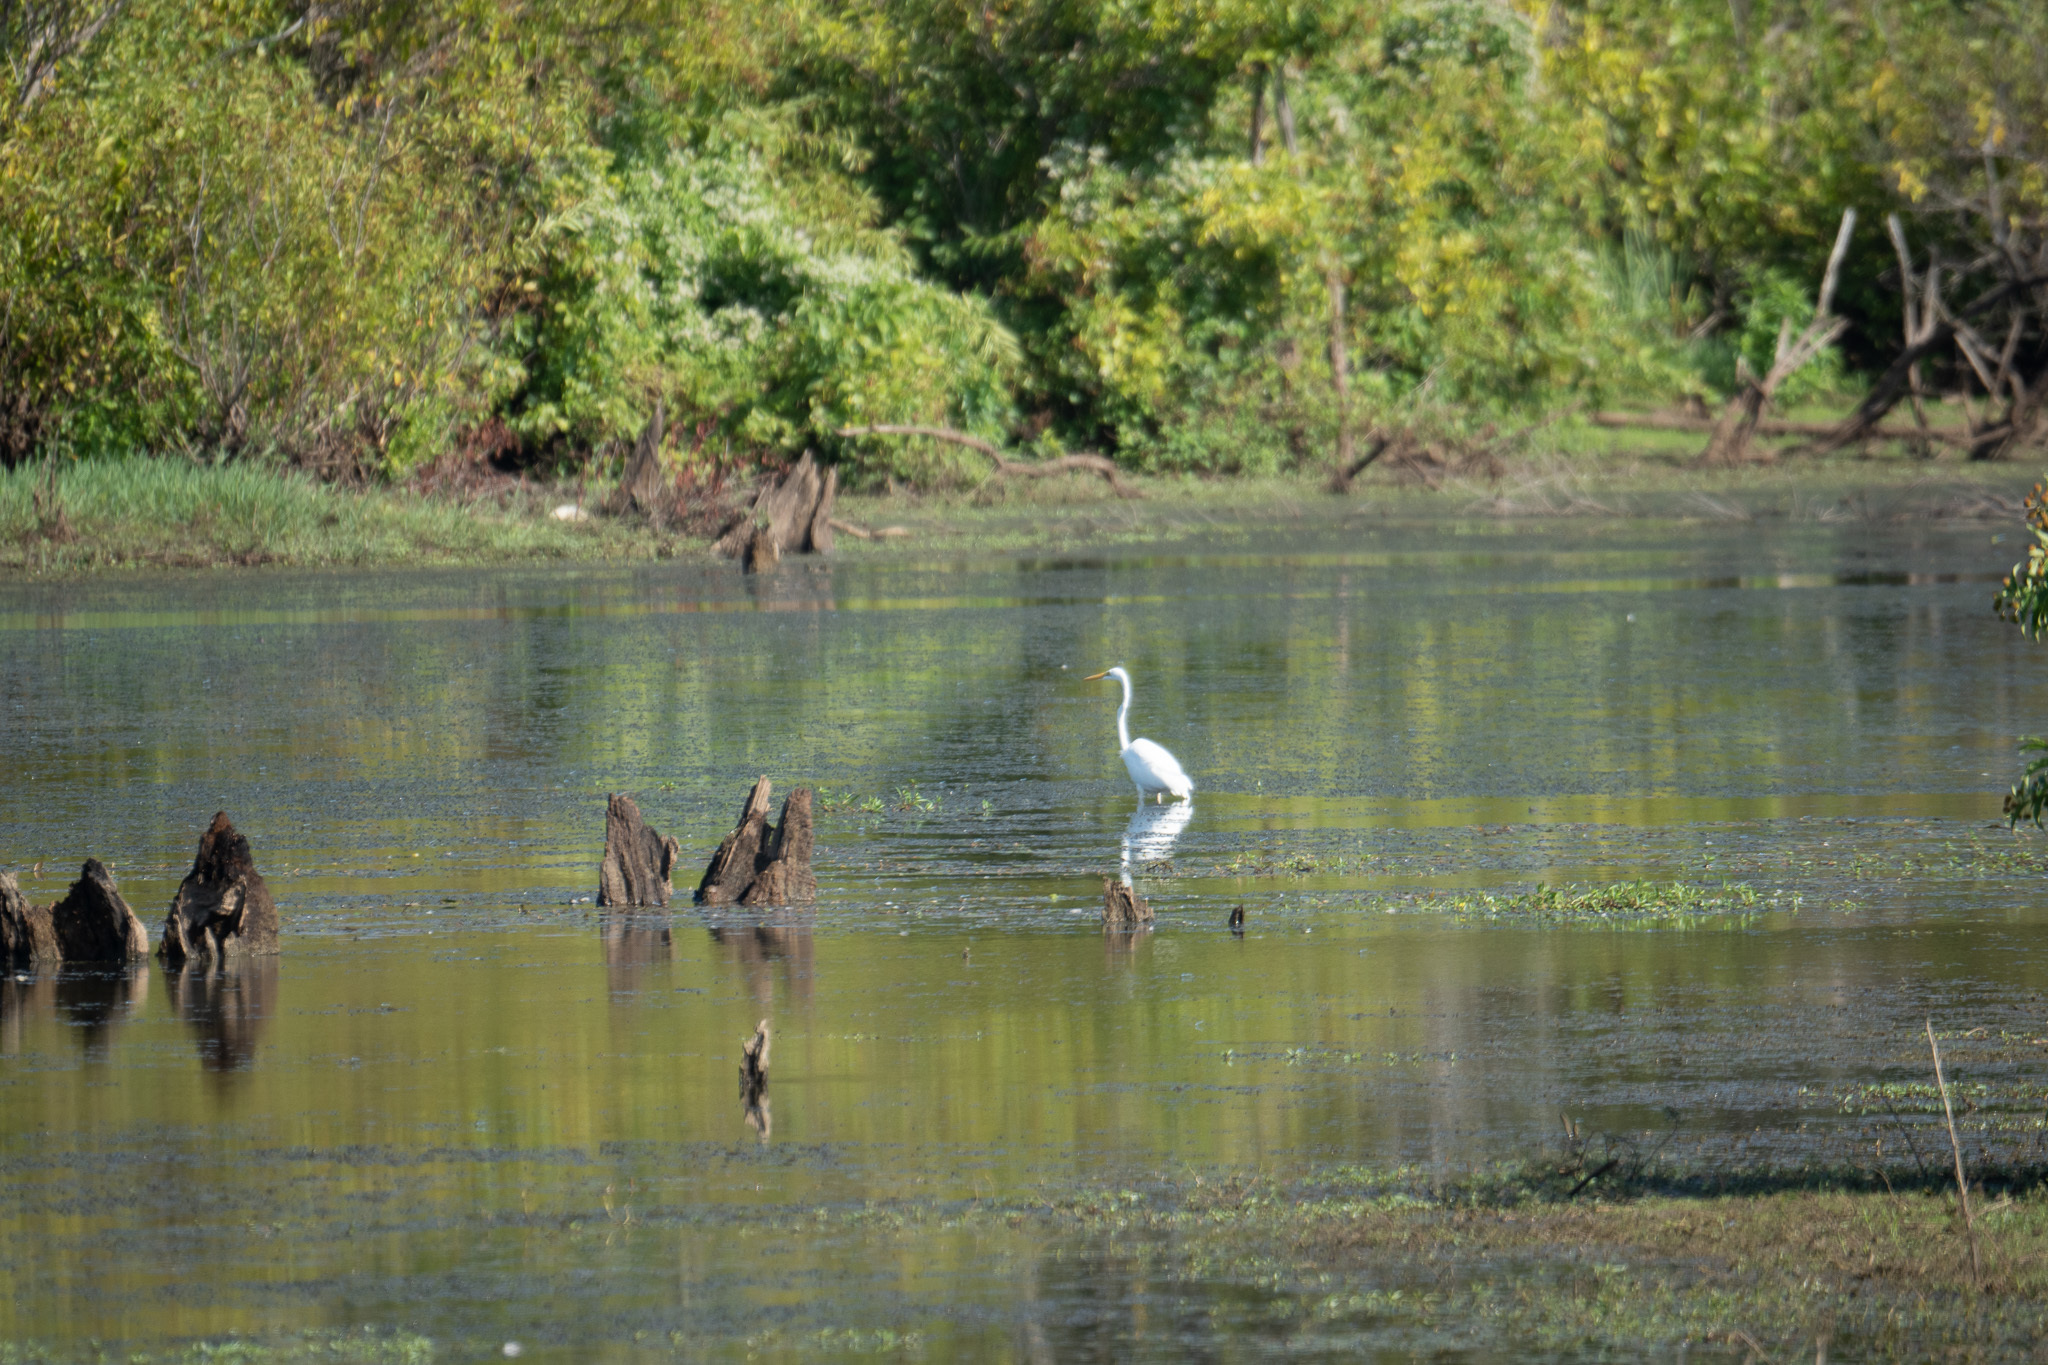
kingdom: Animalia
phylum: Chordata
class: Aves
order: Pelecaniformes
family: Ardeidae
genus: Ardea
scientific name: Ardea alba
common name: Great egret
